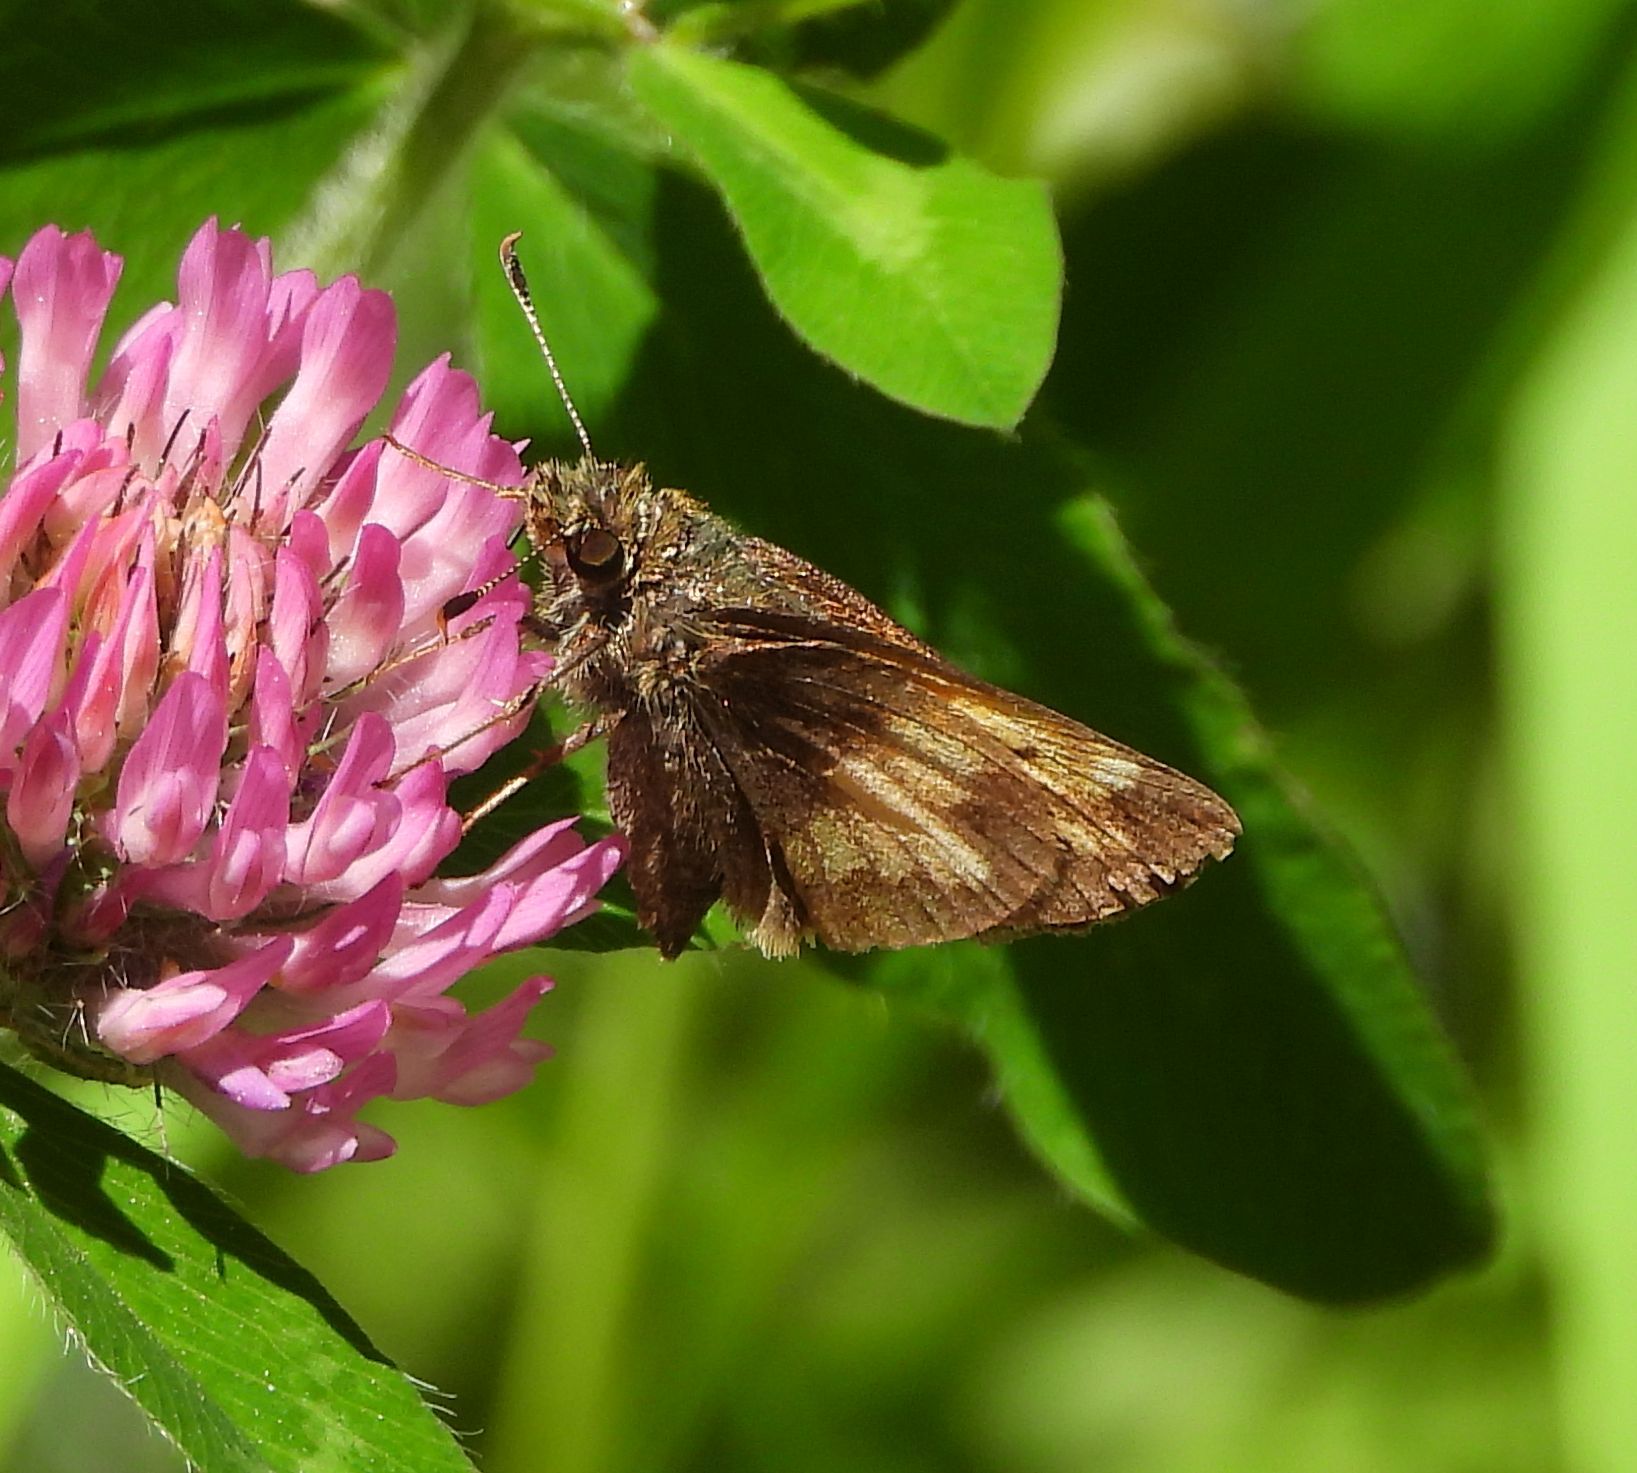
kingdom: Animalia
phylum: Arthropoda
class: Insecta
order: Lepidoptera
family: Hesperiidae
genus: Lon
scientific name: Lon hobomok
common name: Hobomok skipper
